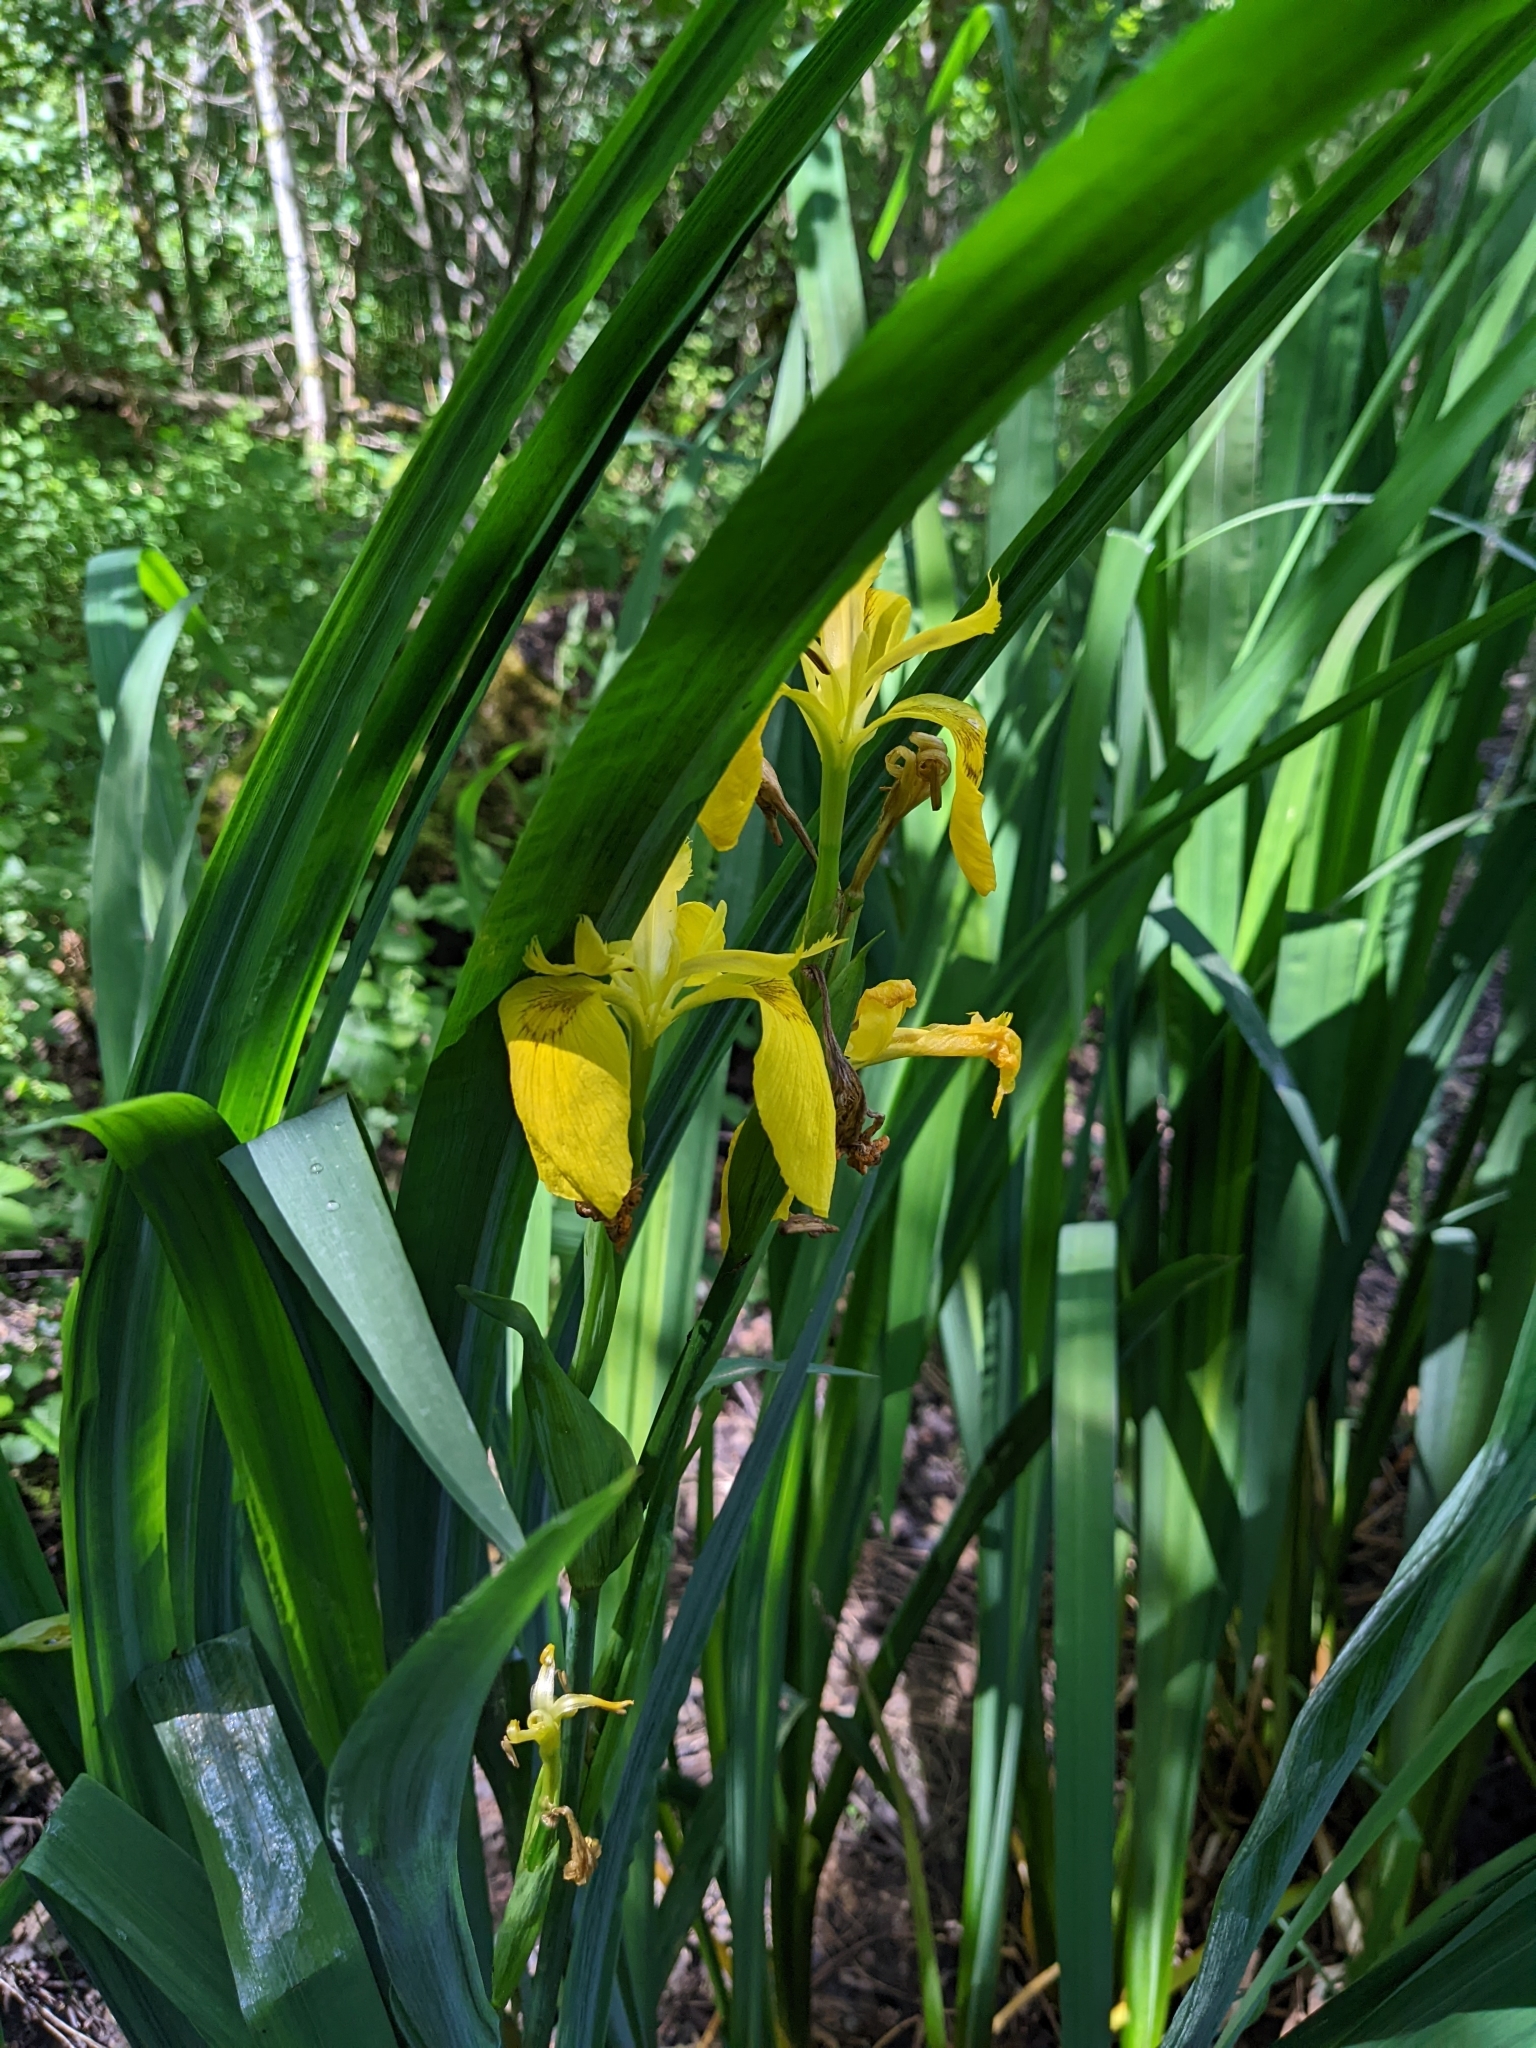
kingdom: Plantae
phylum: Tracheophyta
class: Liliopsida
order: Asparagales
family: Iridaceae
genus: Iris
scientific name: Iris pseudacorus
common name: Yellow flag
